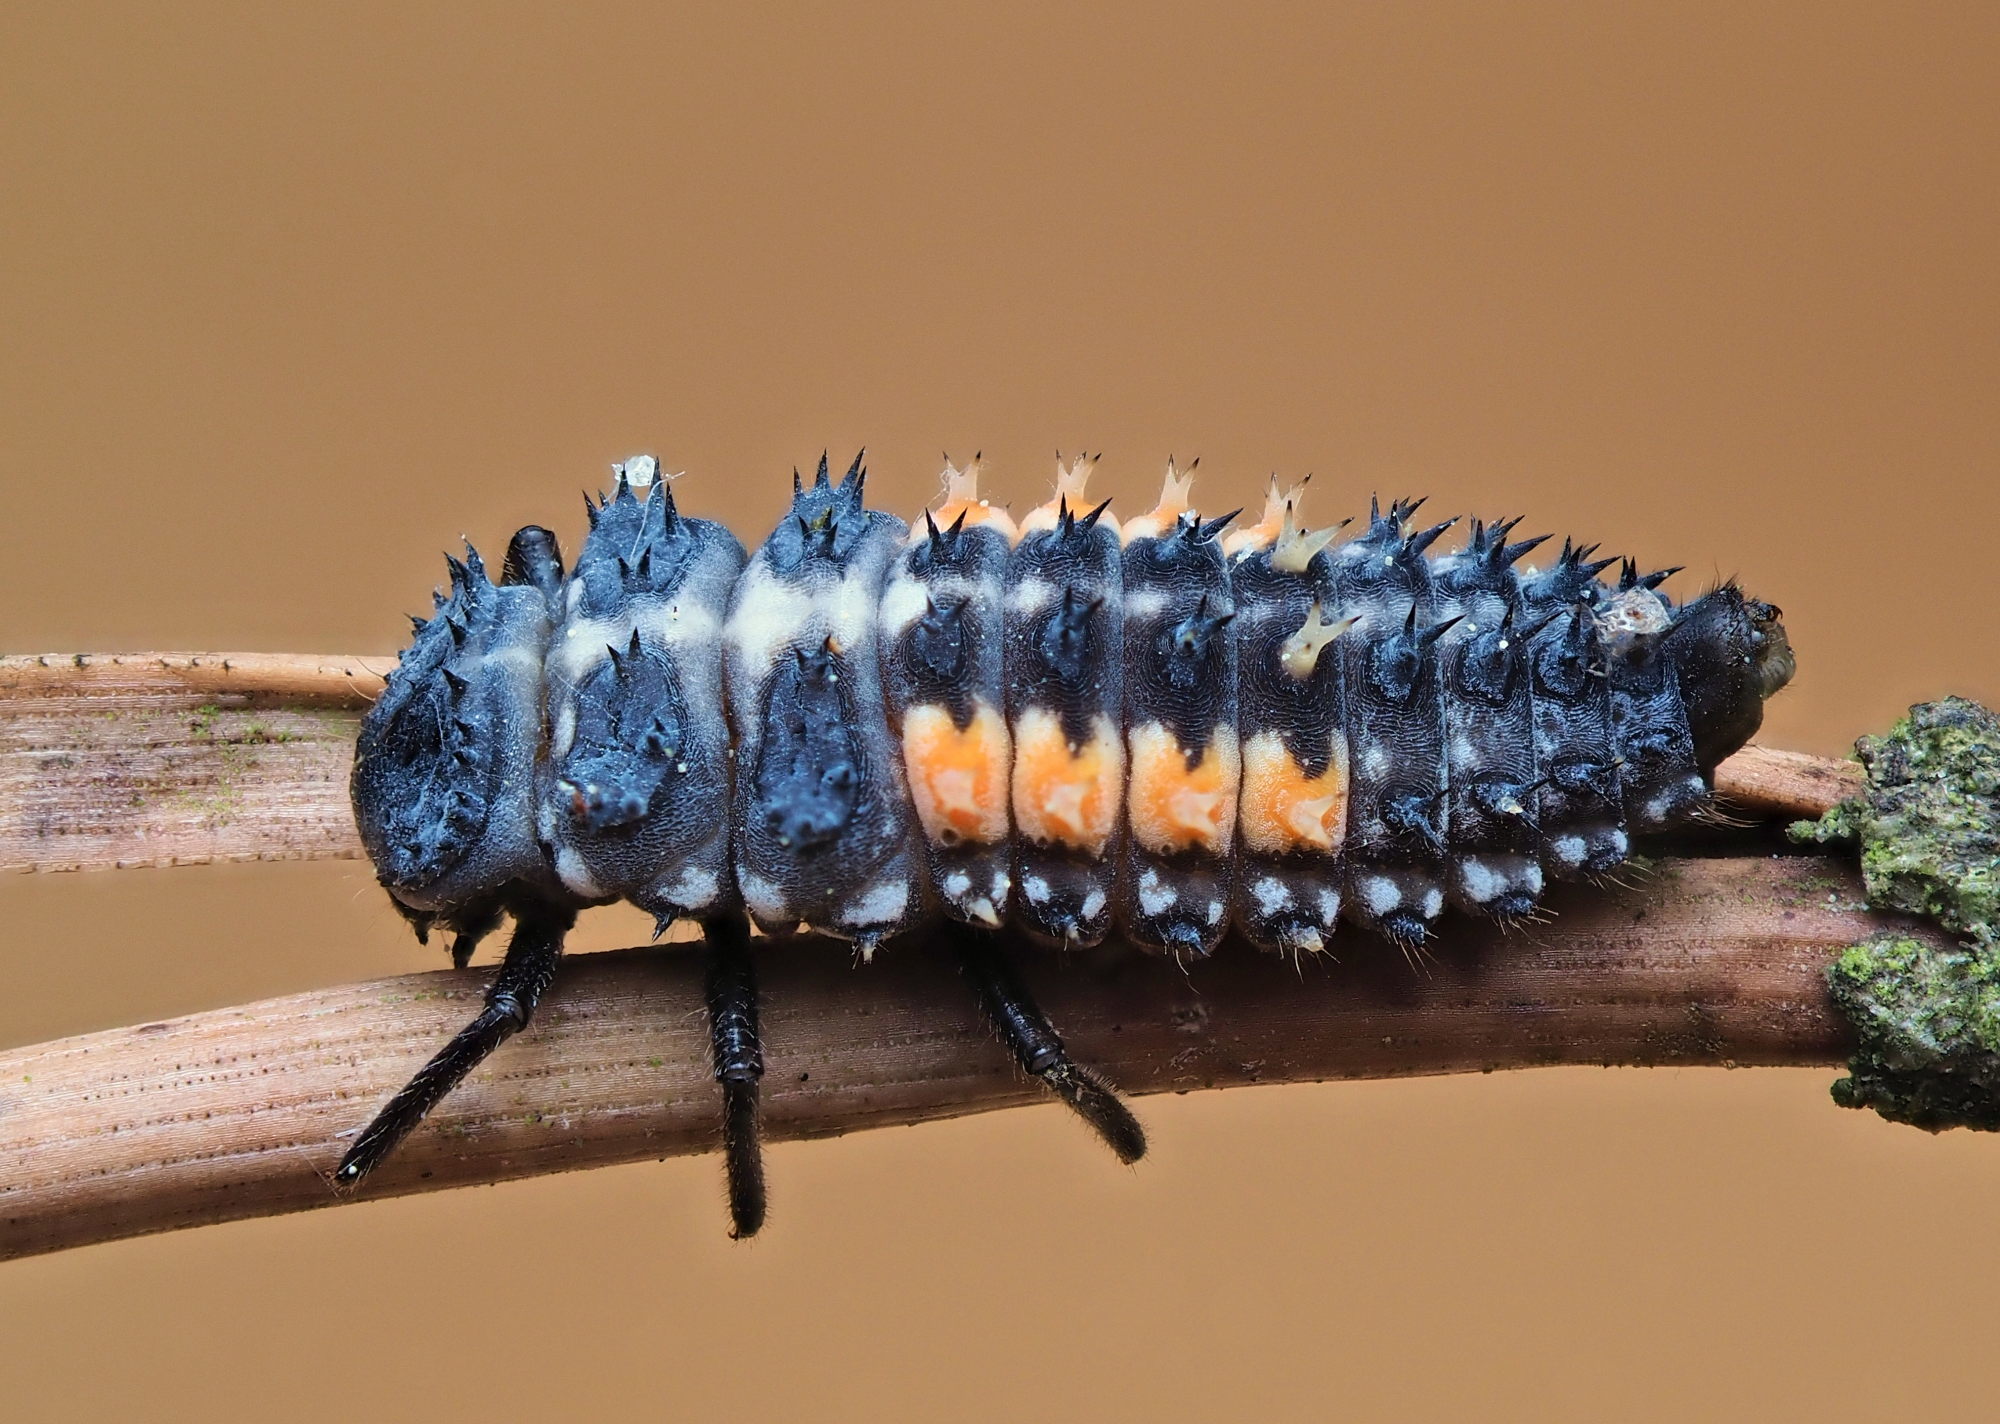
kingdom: Animalia
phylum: Arthropoda
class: Insecta
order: Coleoptera
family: Coccinellidae
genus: Harmonia
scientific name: Harmonia quadripunctata
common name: Cream-streaked ladybird
